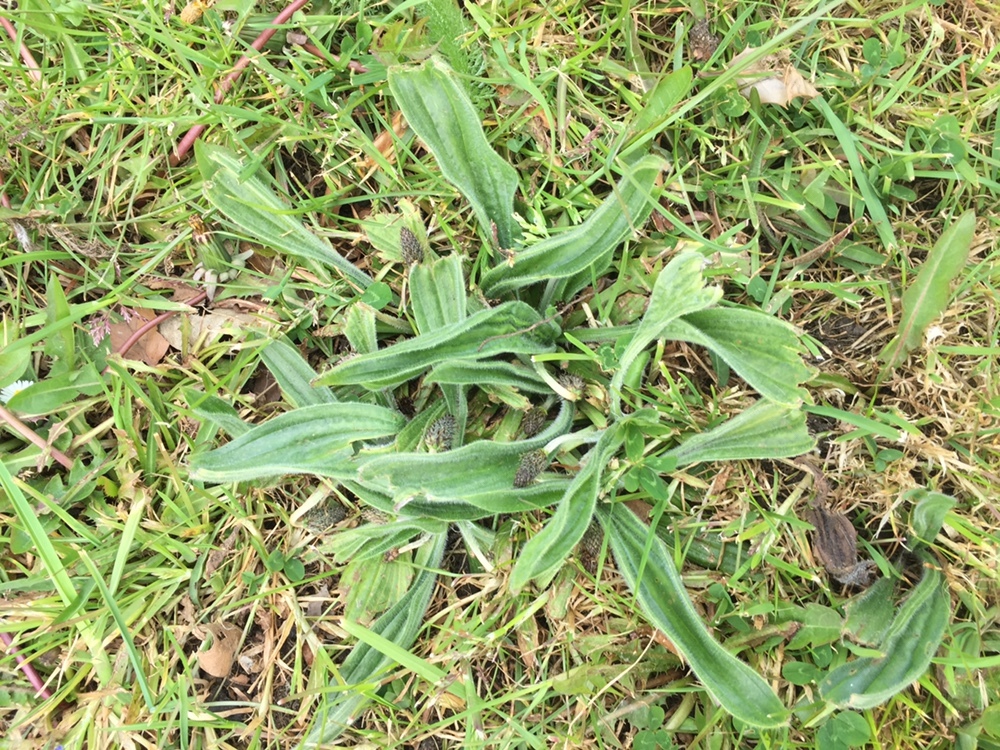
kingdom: Plantae
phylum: Tracheophyta
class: Magnoliopsida
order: Lamiales
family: Plantaginaceae
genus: Plantago
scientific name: Plantago lanceolata
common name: Ribwort plantain
